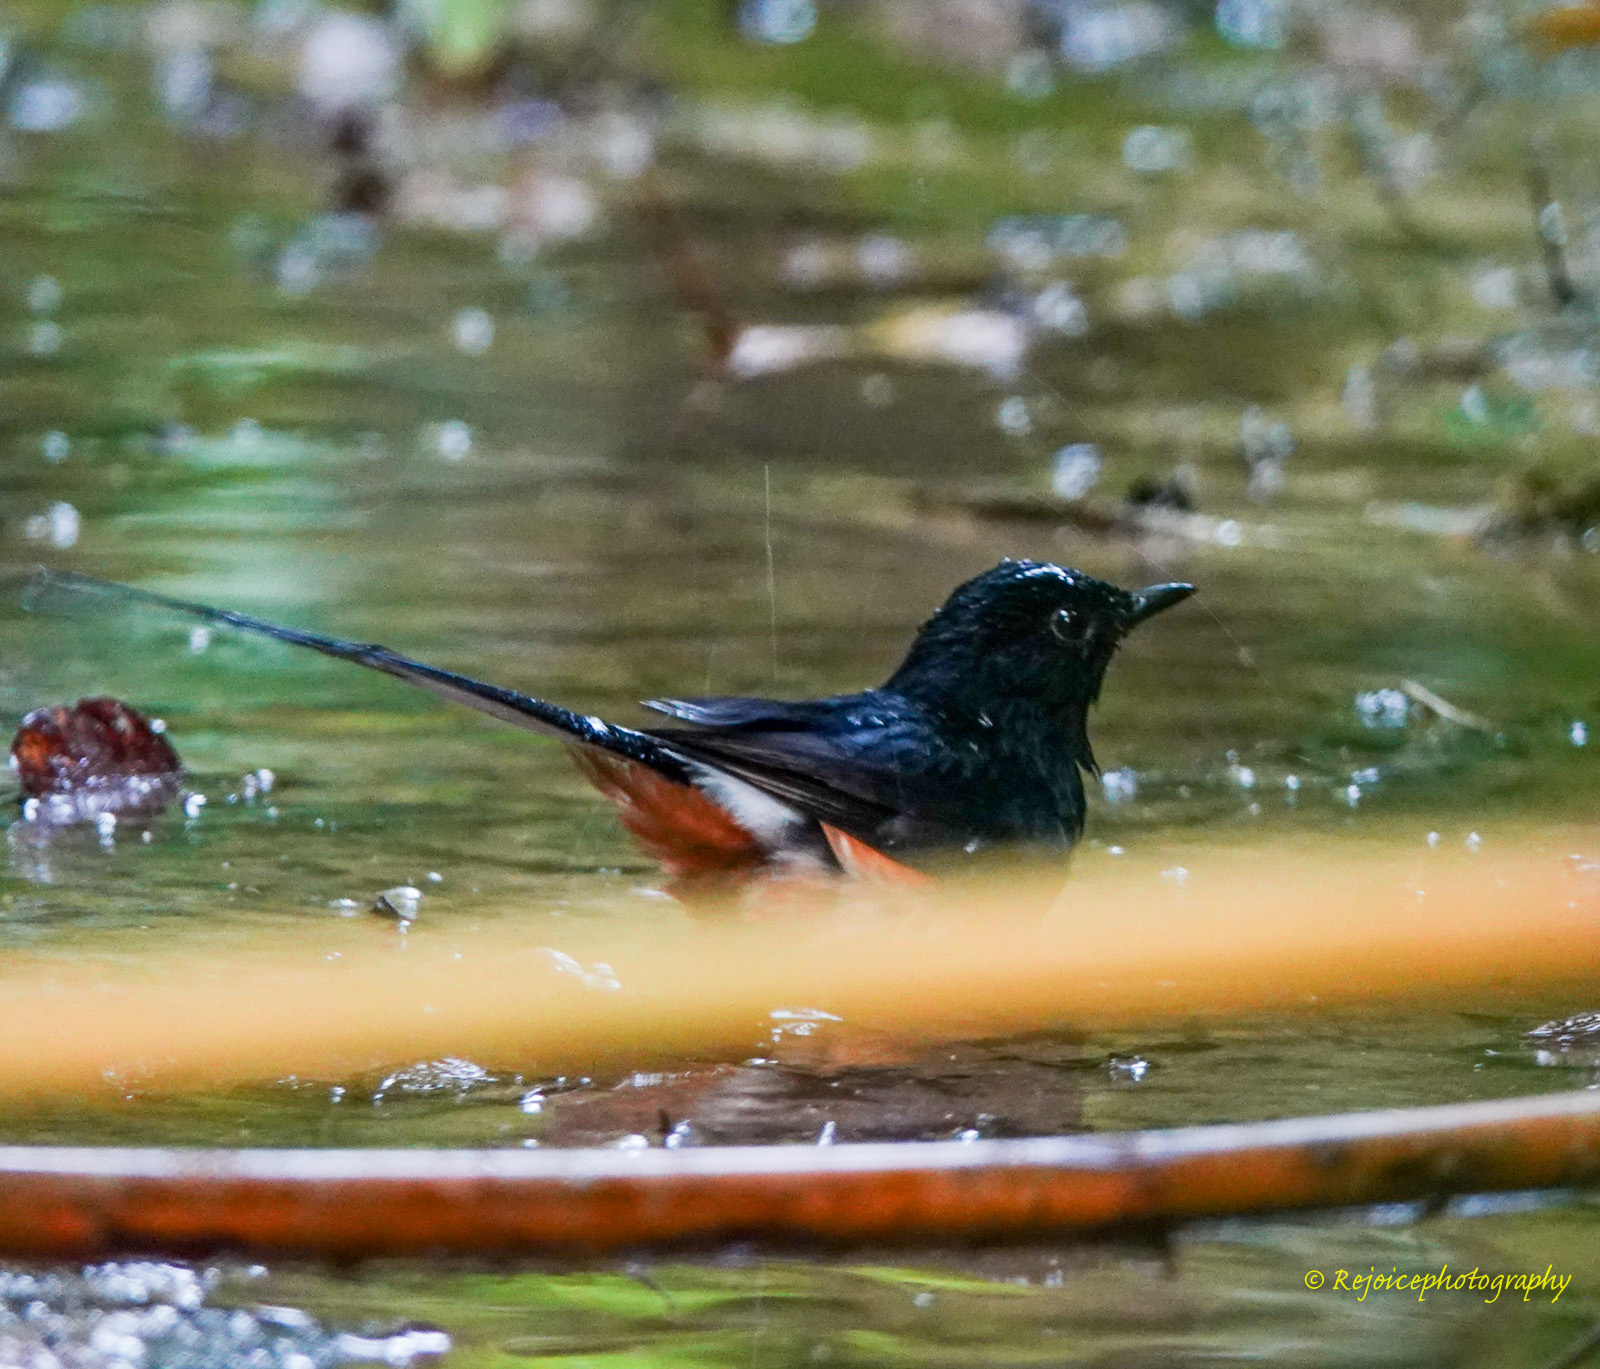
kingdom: Animalia
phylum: Chordata
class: Aves
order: Passeriformes
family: Muscicapidae
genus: Copsychus
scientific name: Copsychus malabaricus
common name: White-rumped shama
